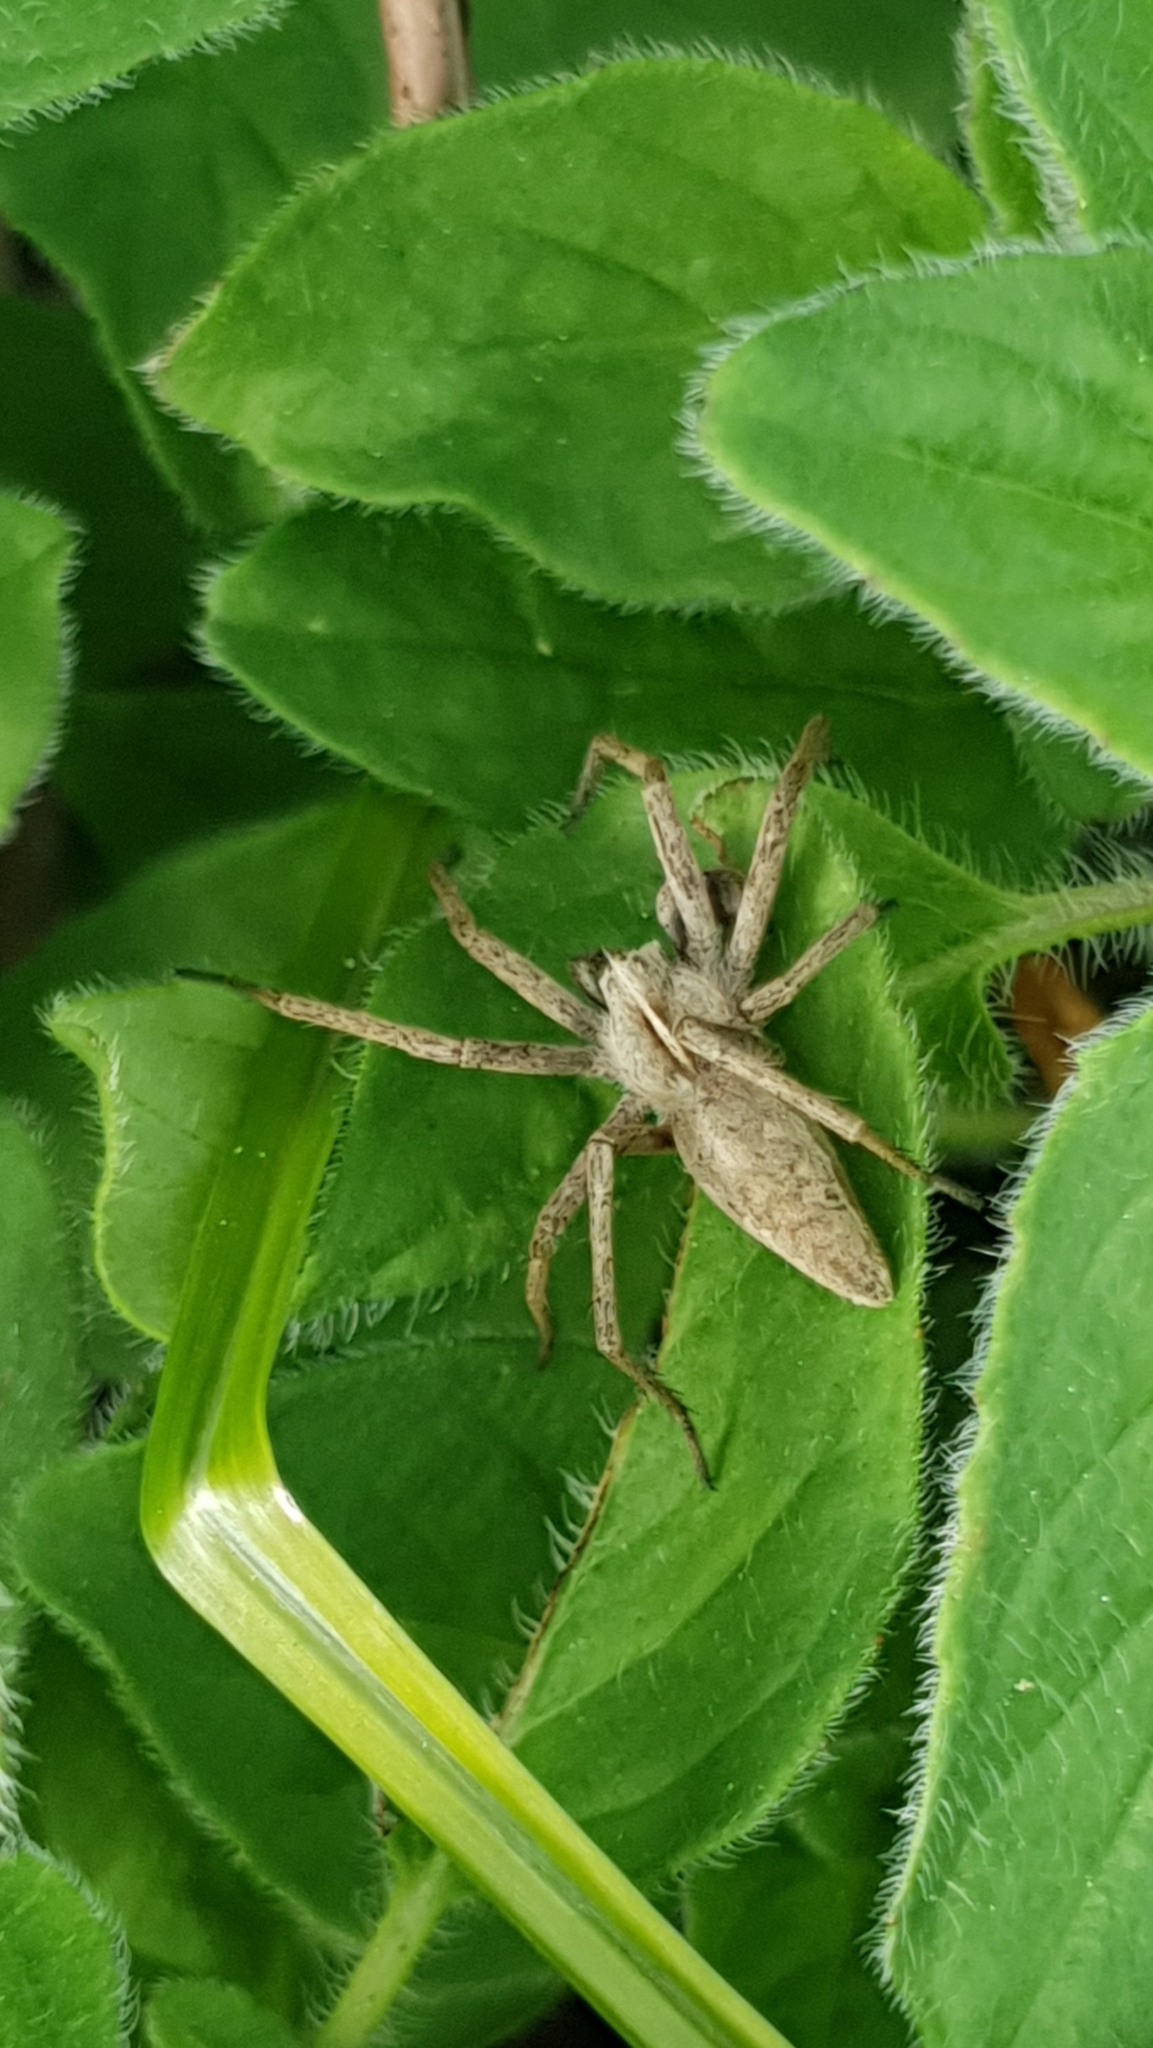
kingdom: Animalia
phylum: Arthropoda
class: Arachnida
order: Araneae
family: Pisauridae
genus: Pisaura
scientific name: Pisaura mirabilis
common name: Tent spider
